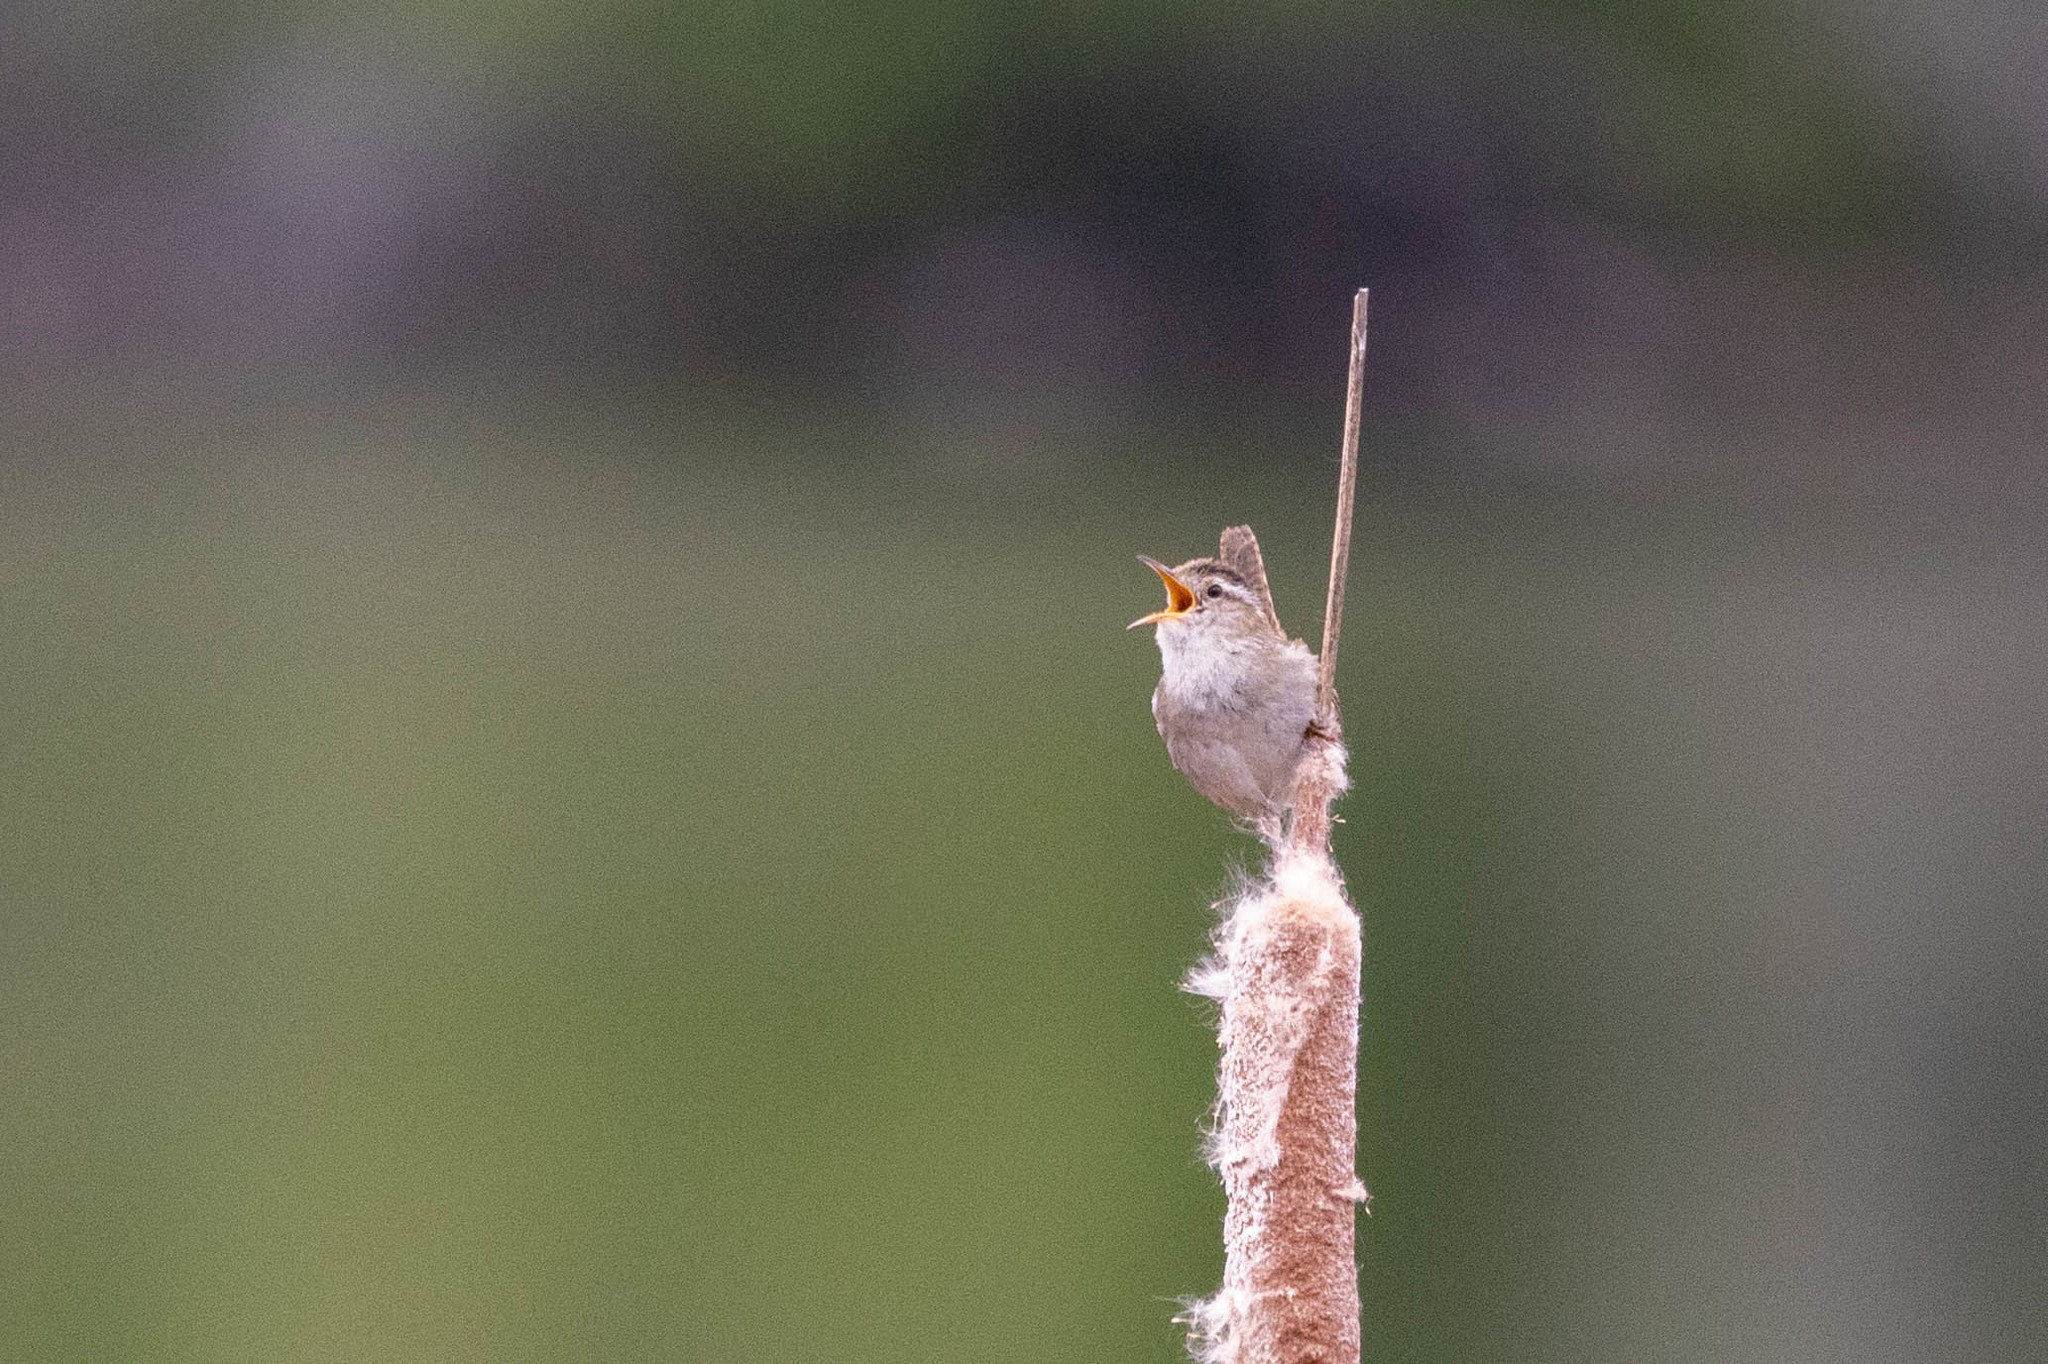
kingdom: Animalia
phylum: Chordata
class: Aves
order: Passeriformes
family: Troglodytidae
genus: Cistothorus
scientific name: Cistothorus palustris
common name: Marsh wren
